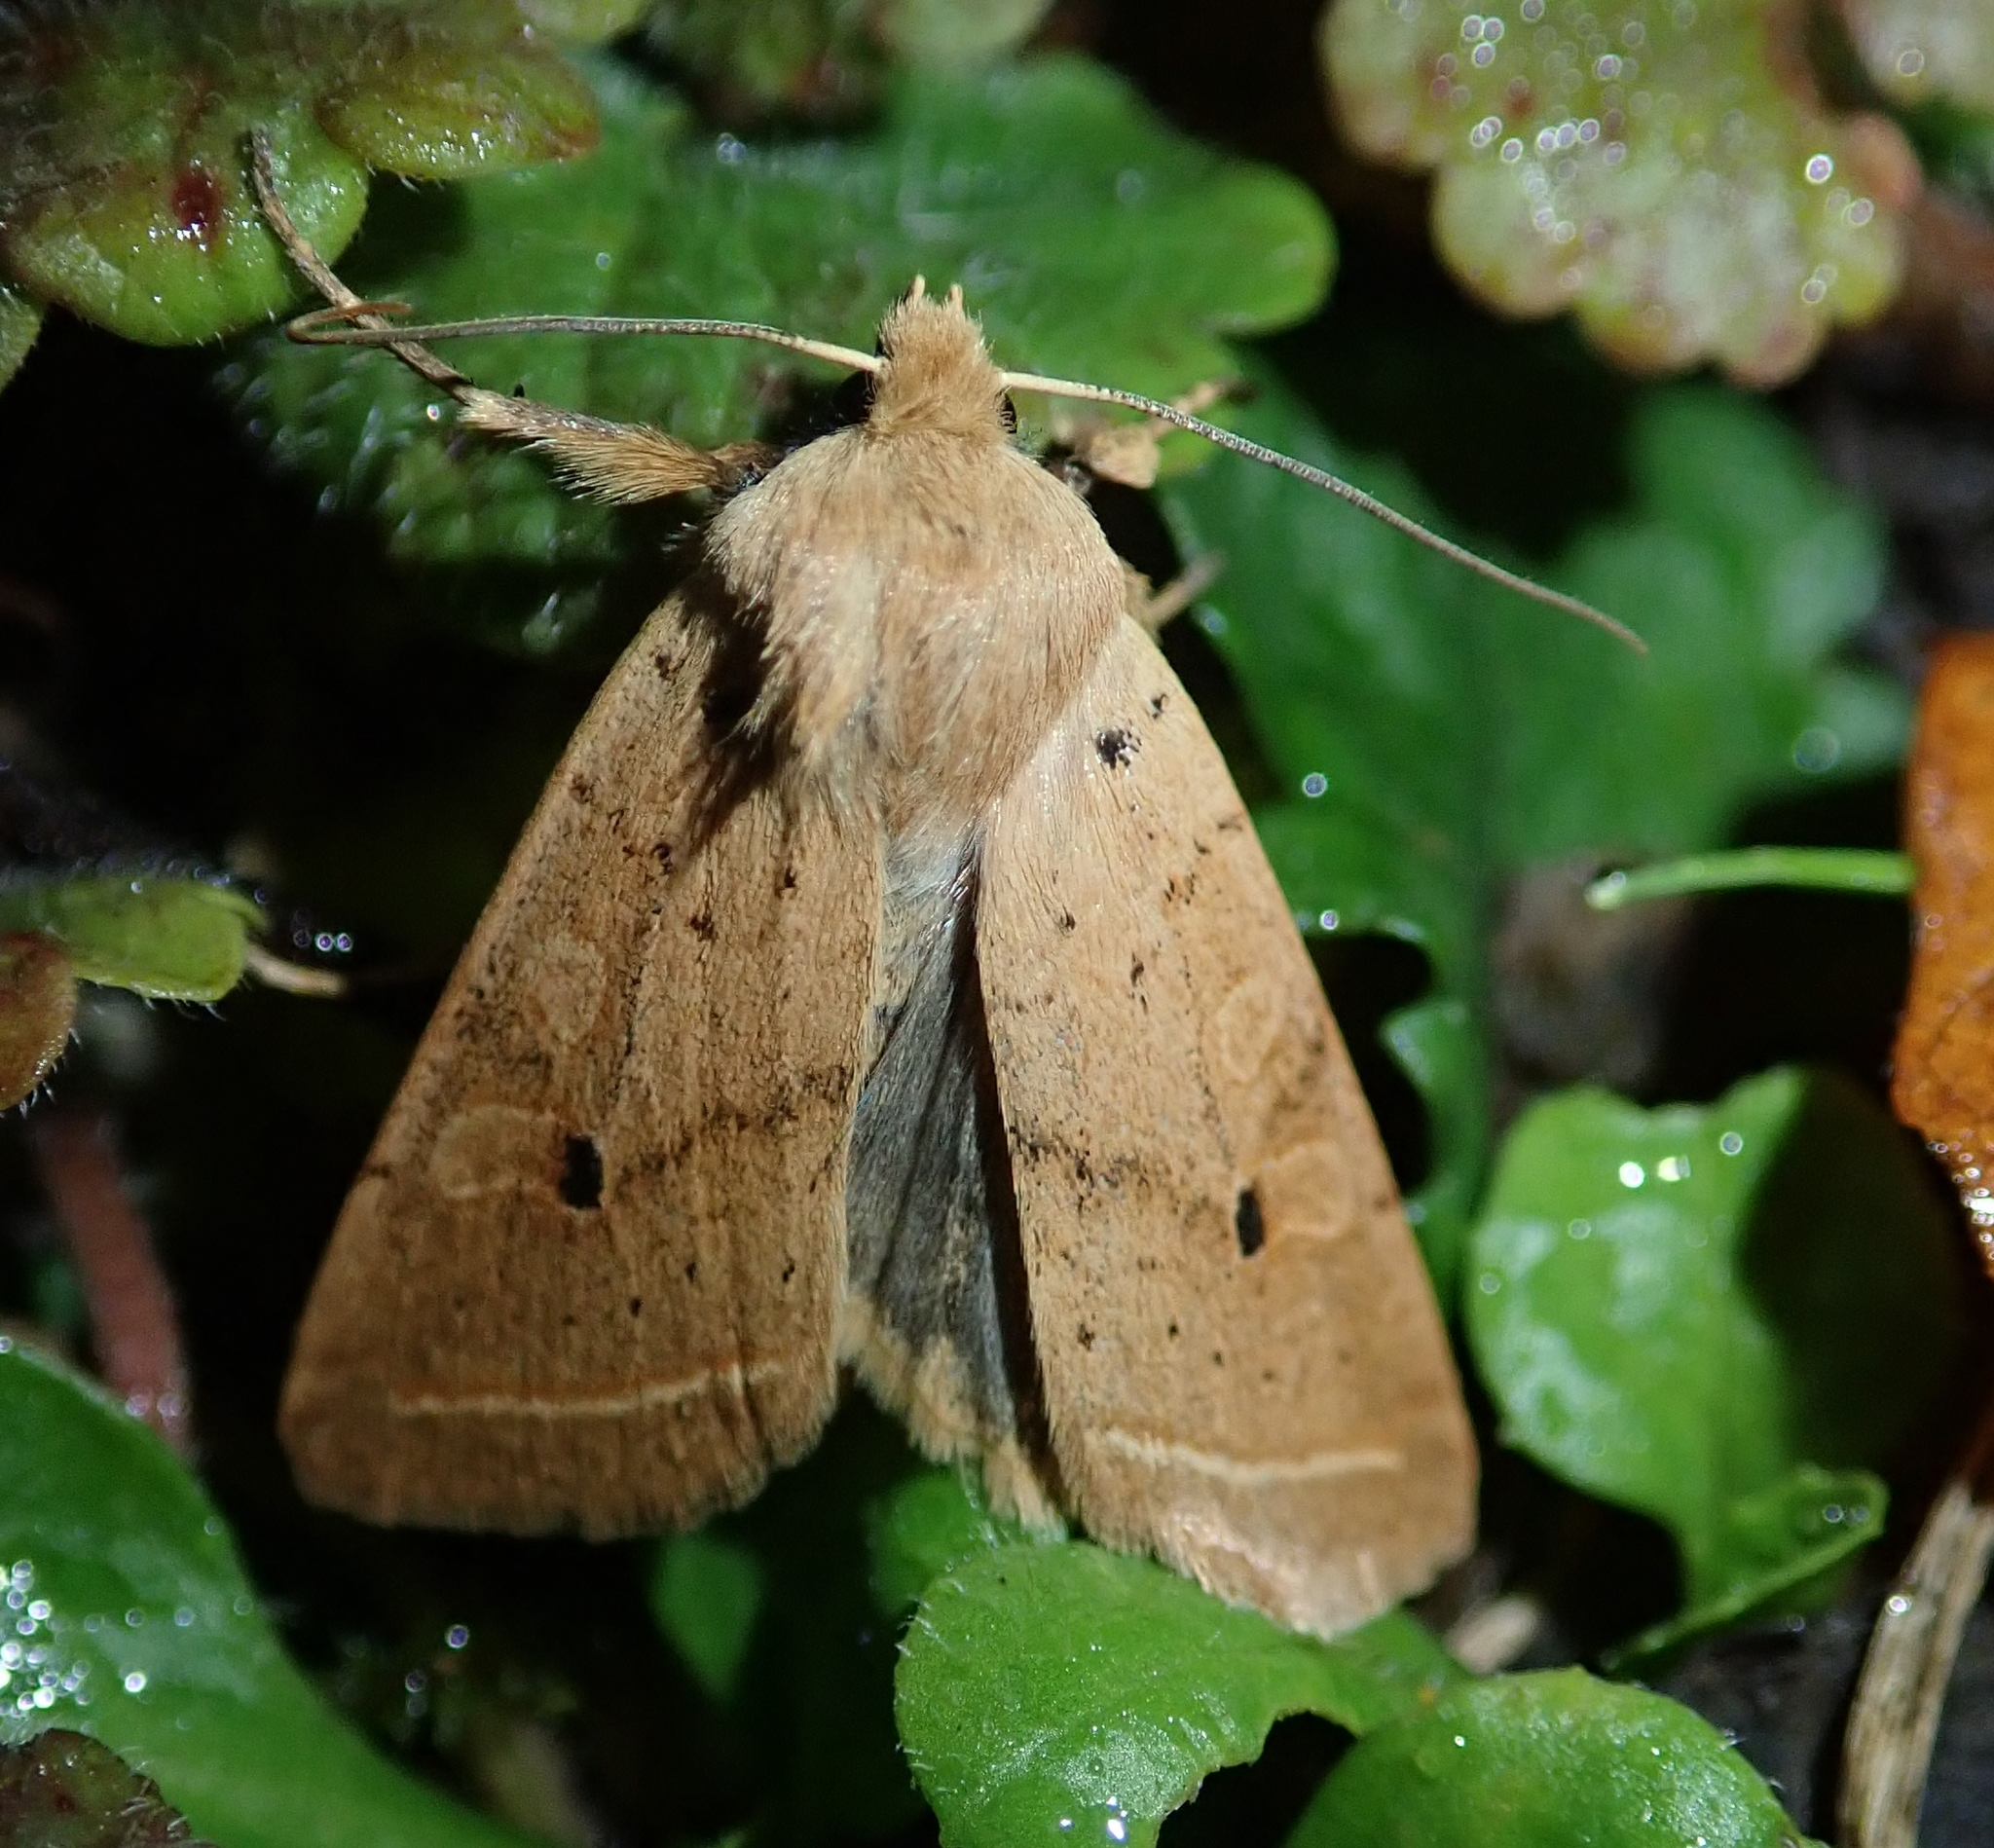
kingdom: Animalia
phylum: Arthropoda
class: Insecta
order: Lepidoptera
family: Noctuidae
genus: Agrochola
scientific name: Agrochola macilenta
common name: Yellow-line quaker
